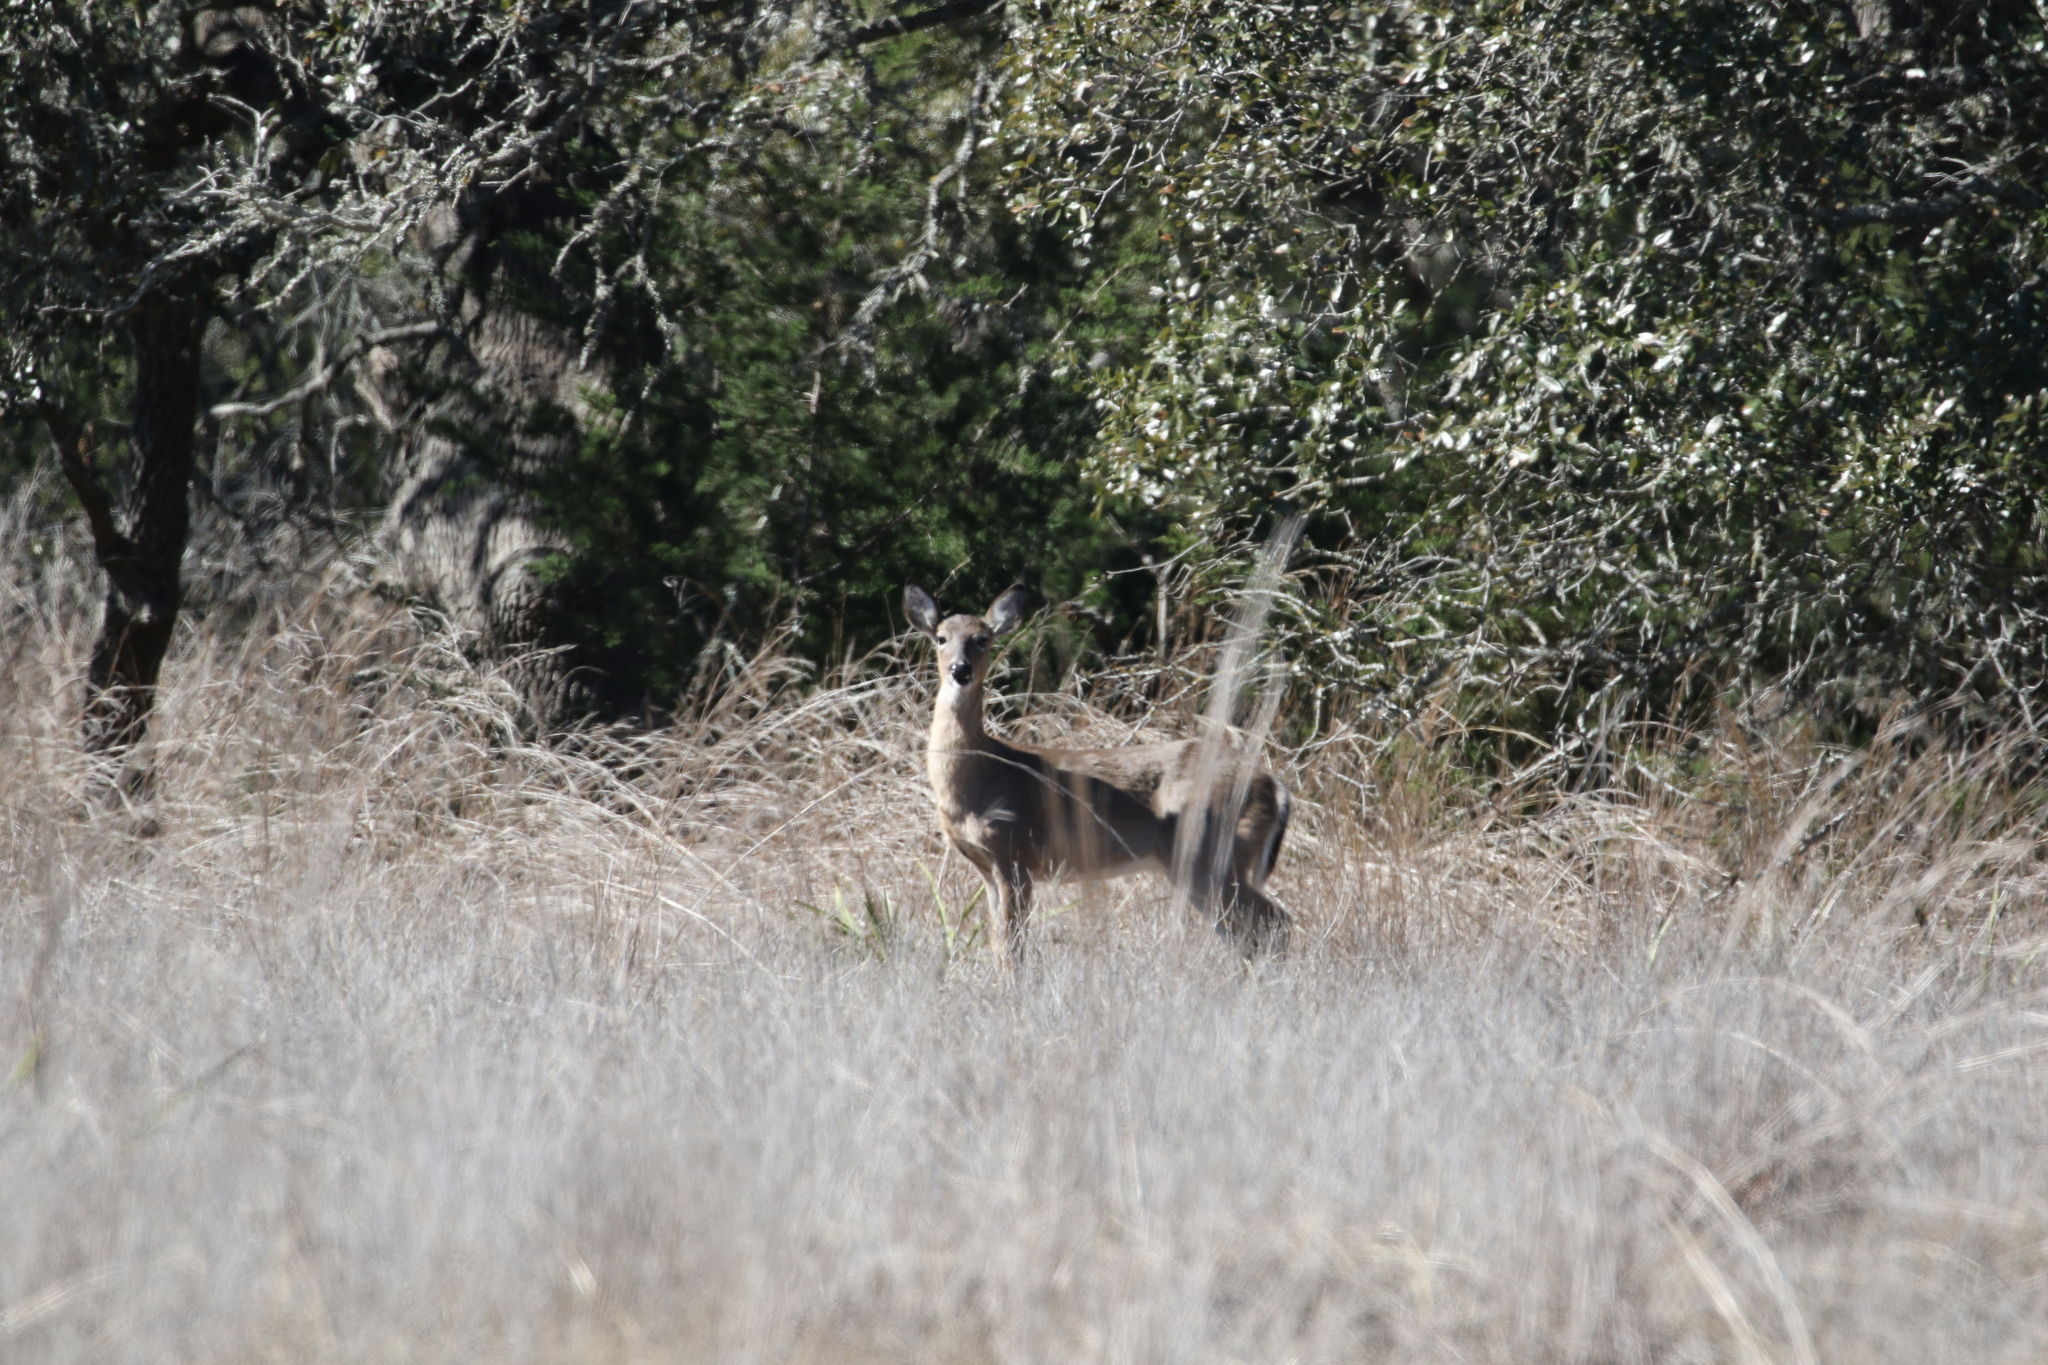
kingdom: Animalia
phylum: Chordata
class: Mammalia
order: Artiodactyla
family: Cervidae
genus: Odocoileus
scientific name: Odocoileus virginianus
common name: White-tailed deer
